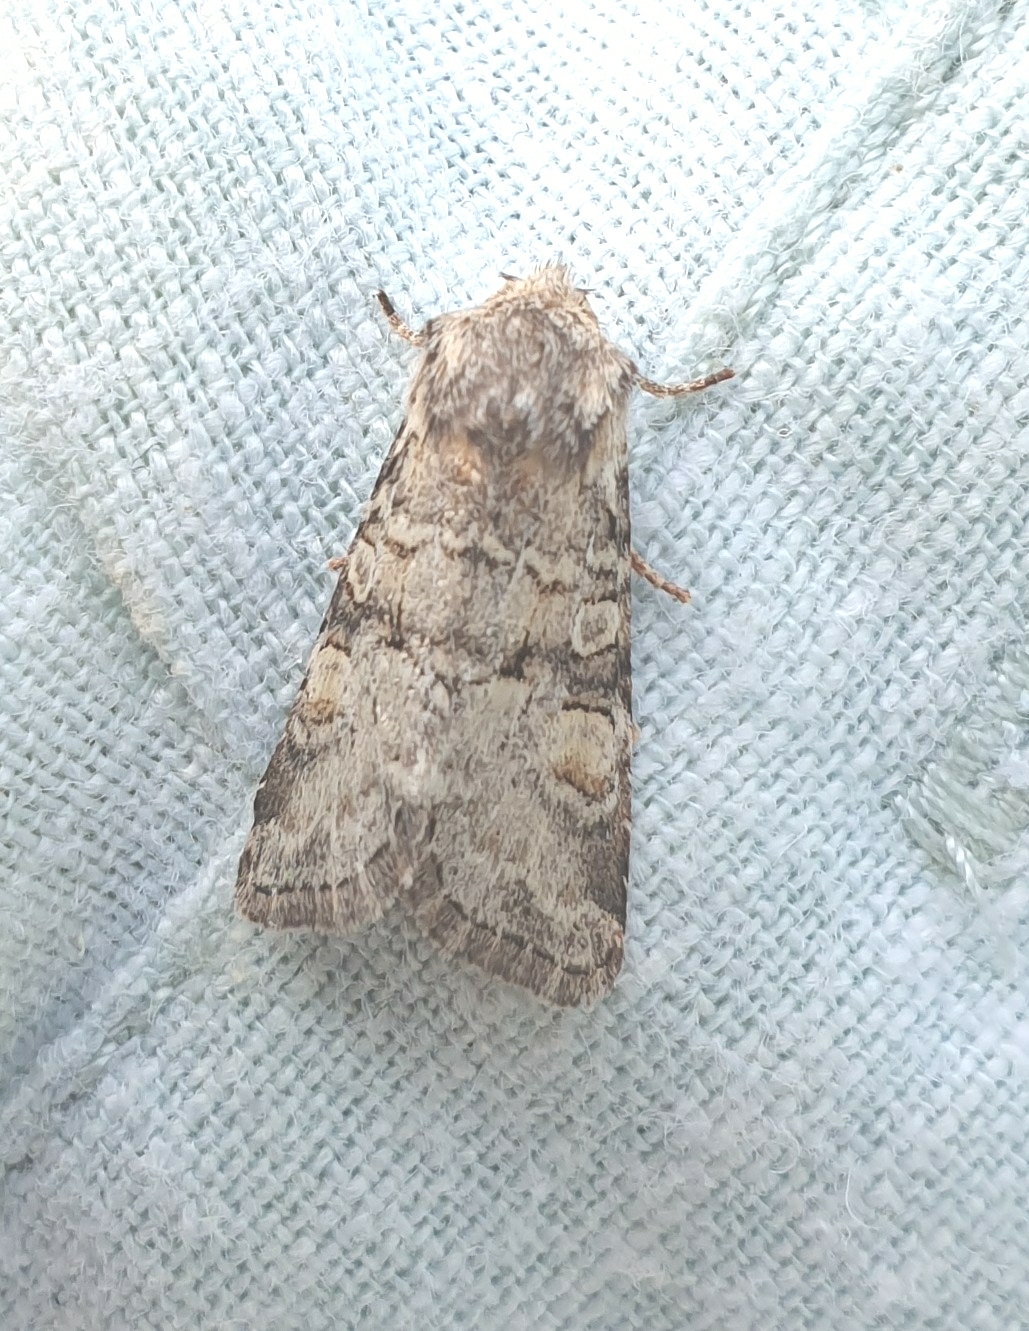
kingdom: Animalia
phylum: Arthropoda
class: Insecta
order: Lepidoptera
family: Noctuidae
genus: Brachylomia
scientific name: Brachylomia viminalis
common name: Minor shoulder-knot
